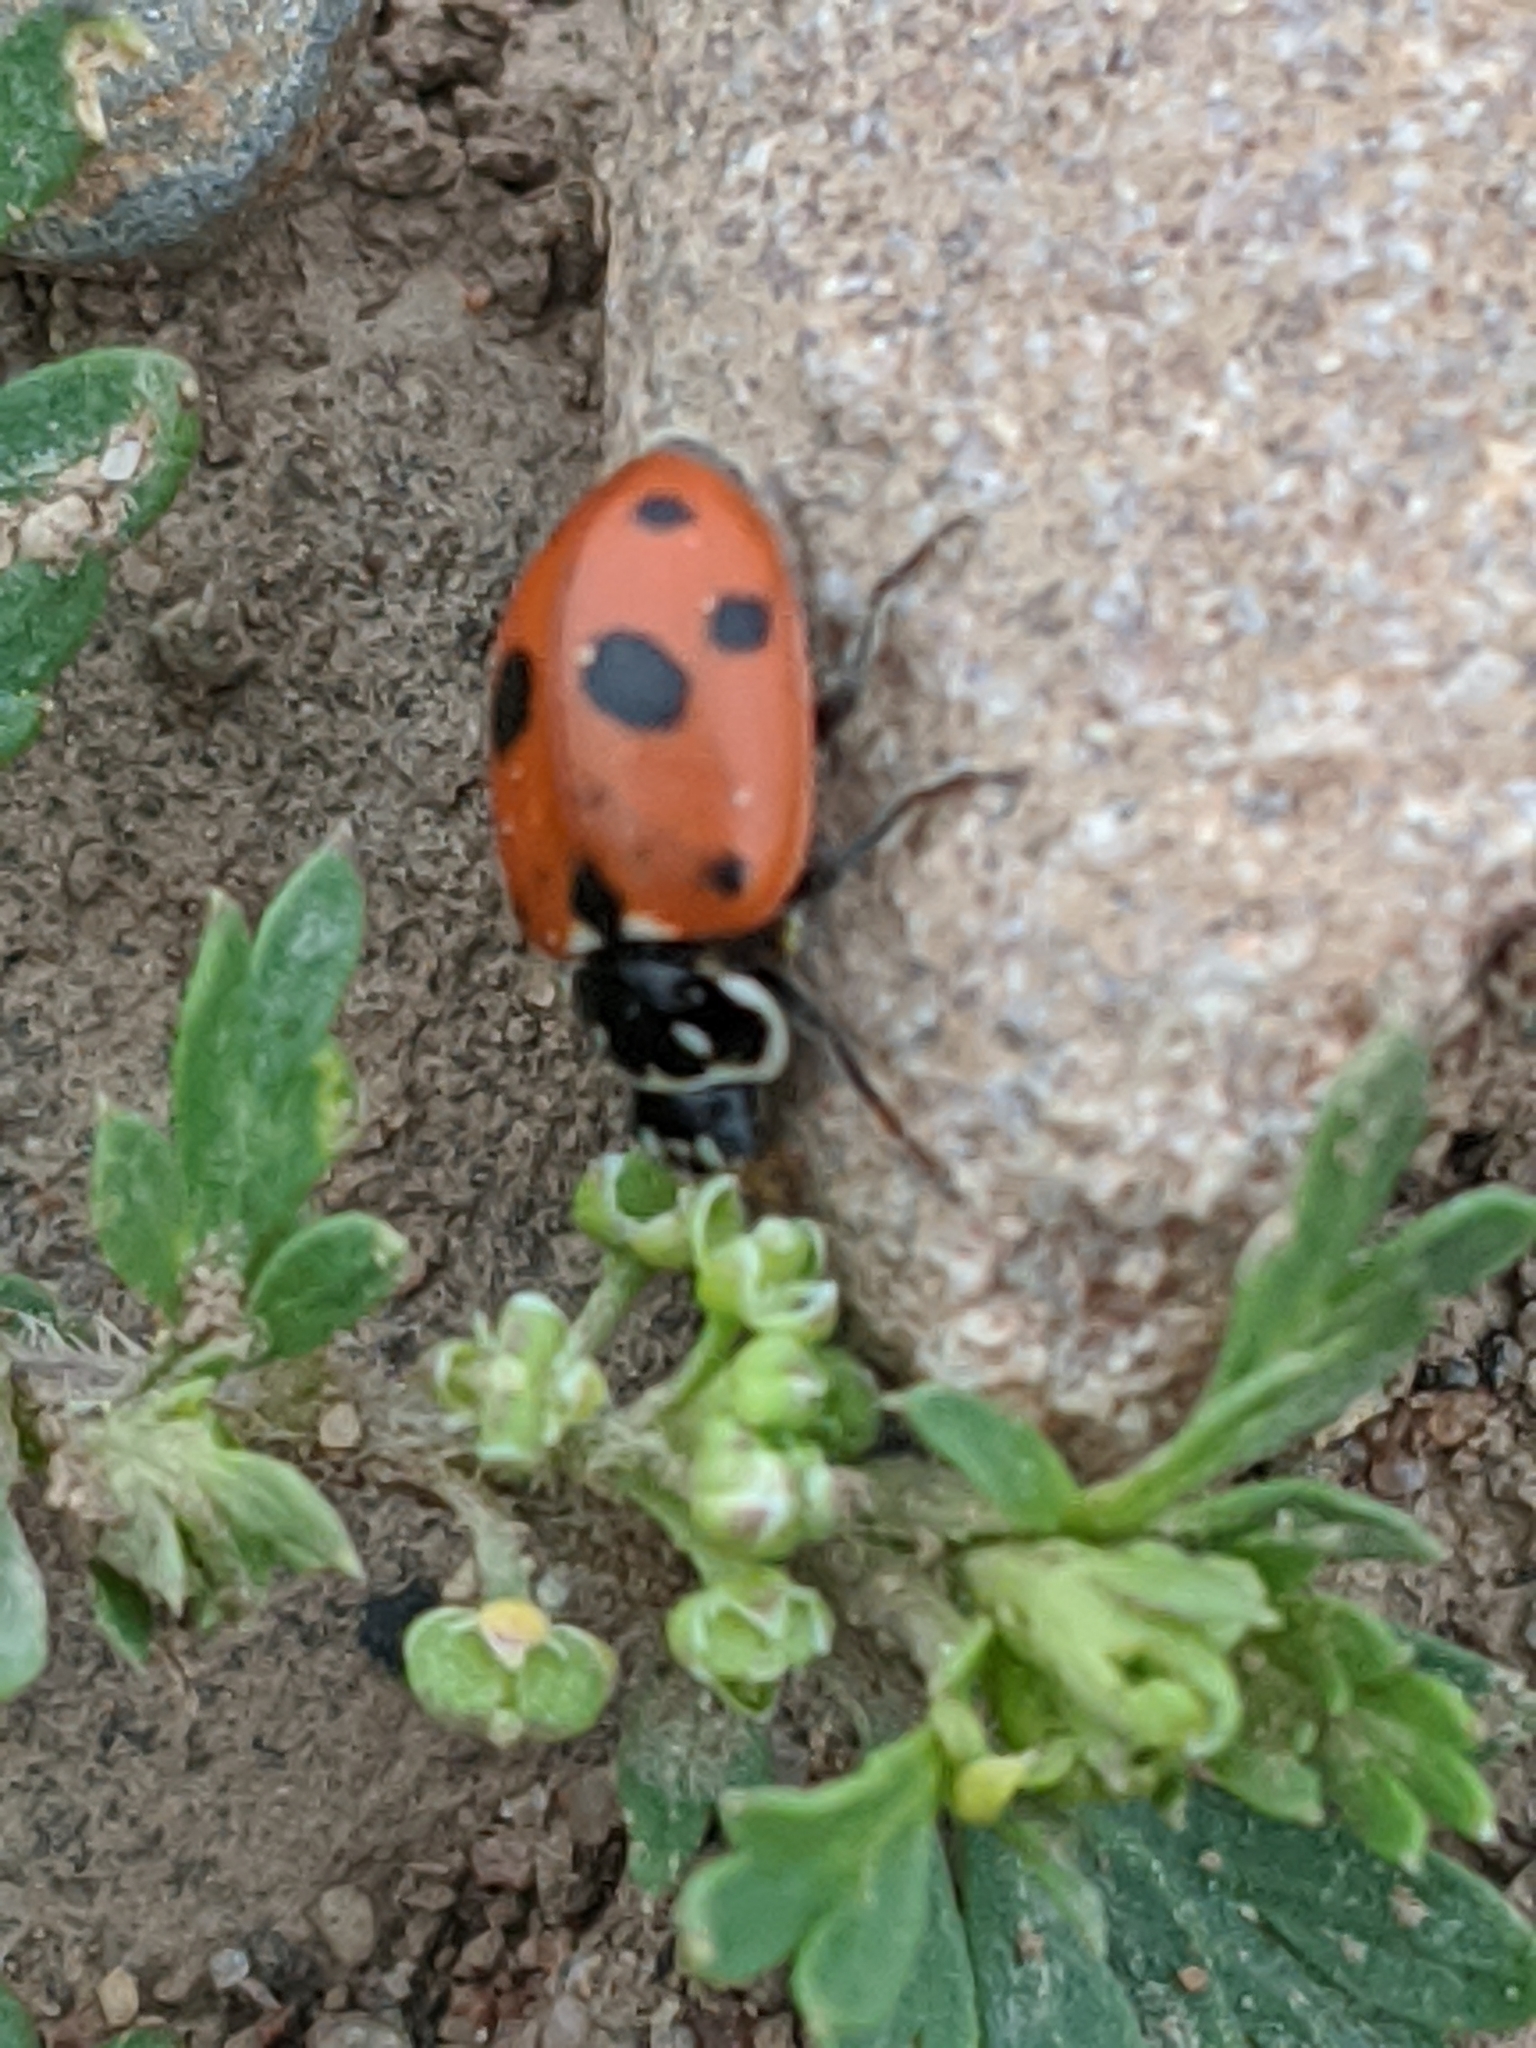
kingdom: Animalia
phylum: Arthropoda
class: Insecta
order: Coleoptera
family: Coccinellidae
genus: Hippodamia
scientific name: Hippodamia variegata
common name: Ladybird beetle
